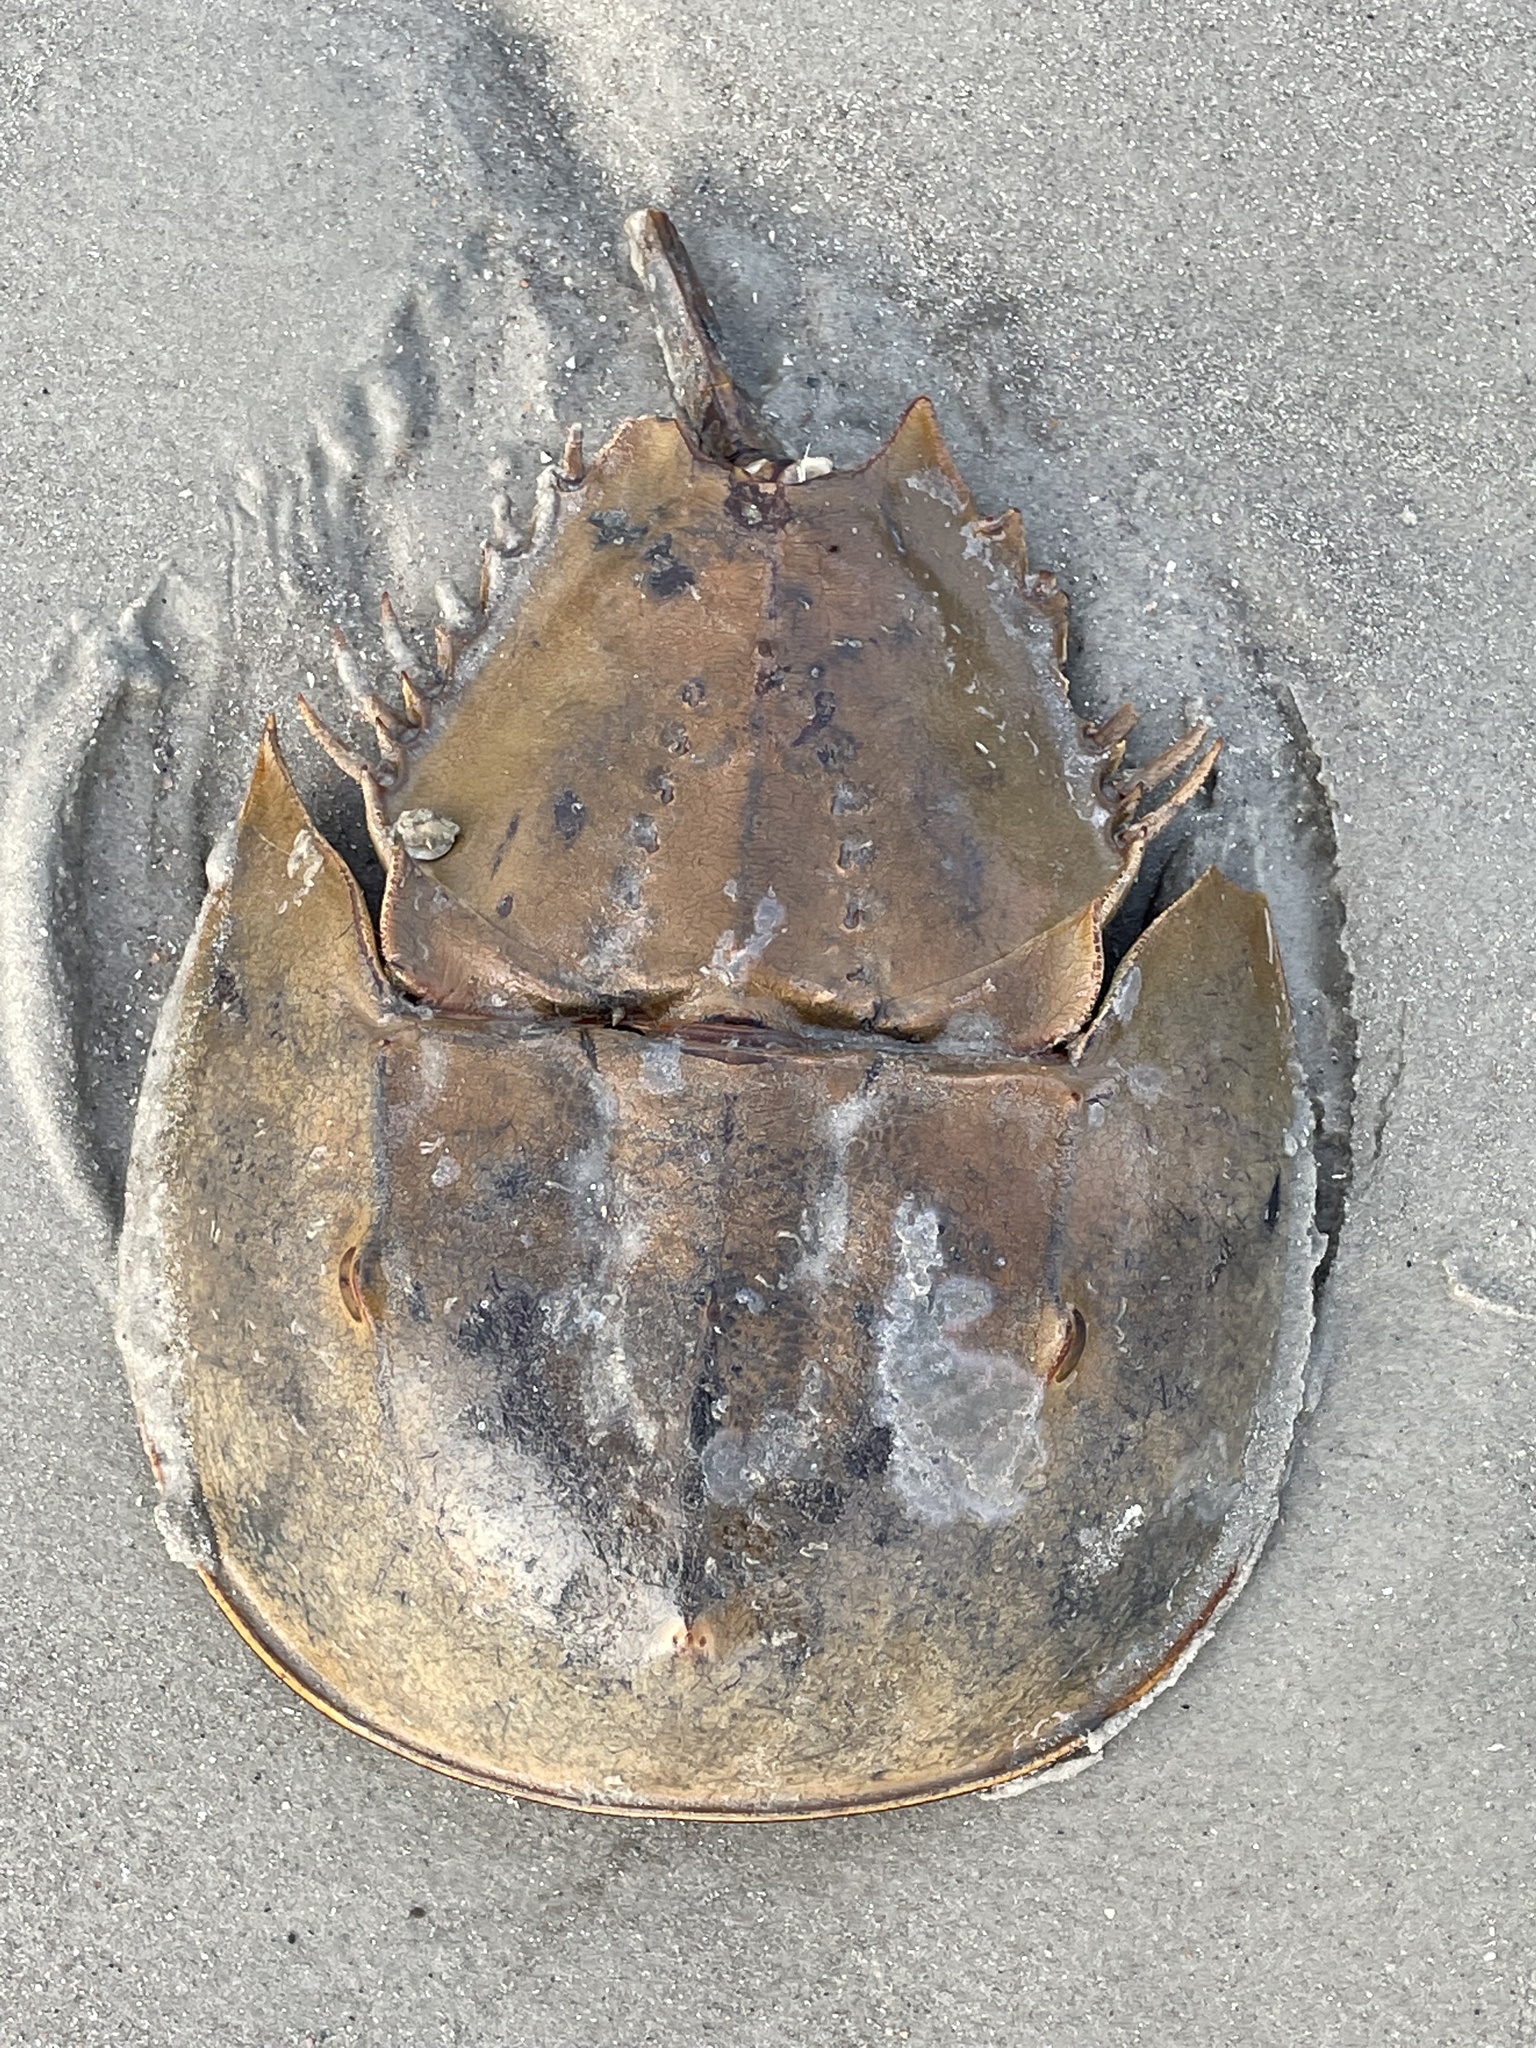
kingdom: Animalia
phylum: Arthropoda
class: Merostomata
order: Xiphosurida
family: Limulidae
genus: Limulus
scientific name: Limulus polyphemus
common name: Horseshoe crab
